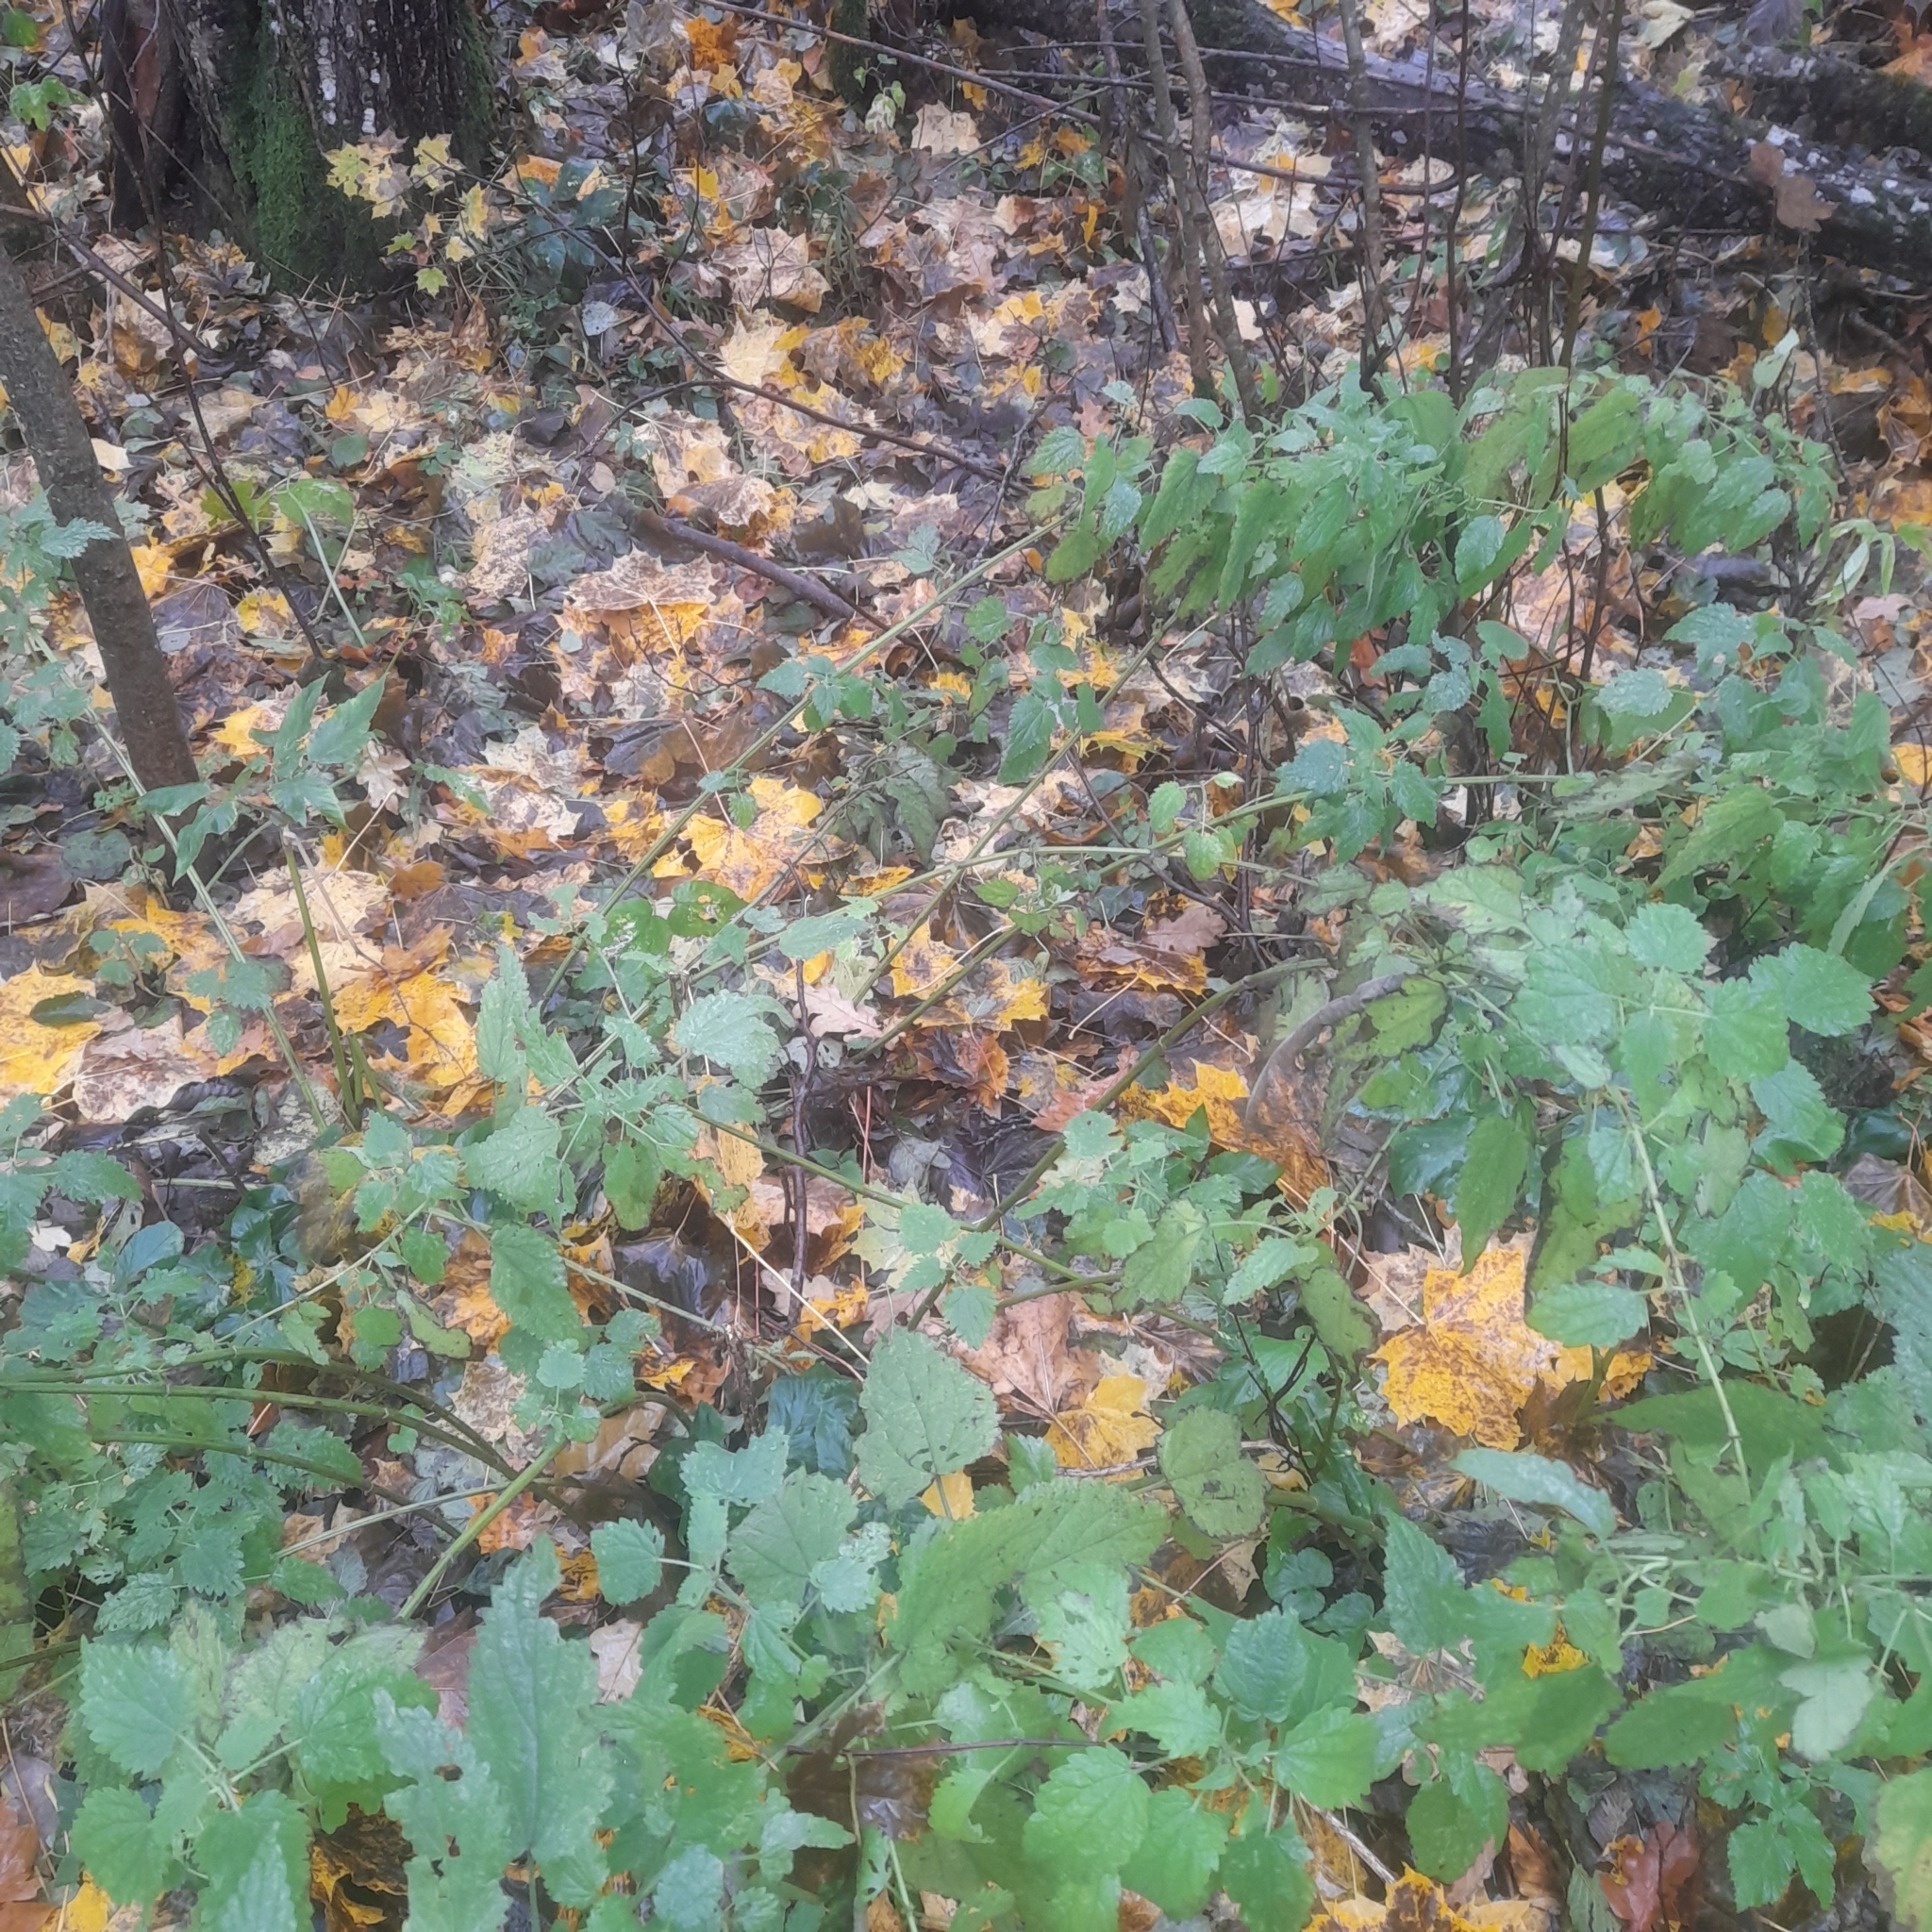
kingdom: Plantae
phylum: Tracheophyta
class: Magnoliopsida
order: Rosales
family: Urticaceae
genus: Urtica
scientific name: Urtica dioica
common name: Common nettle
